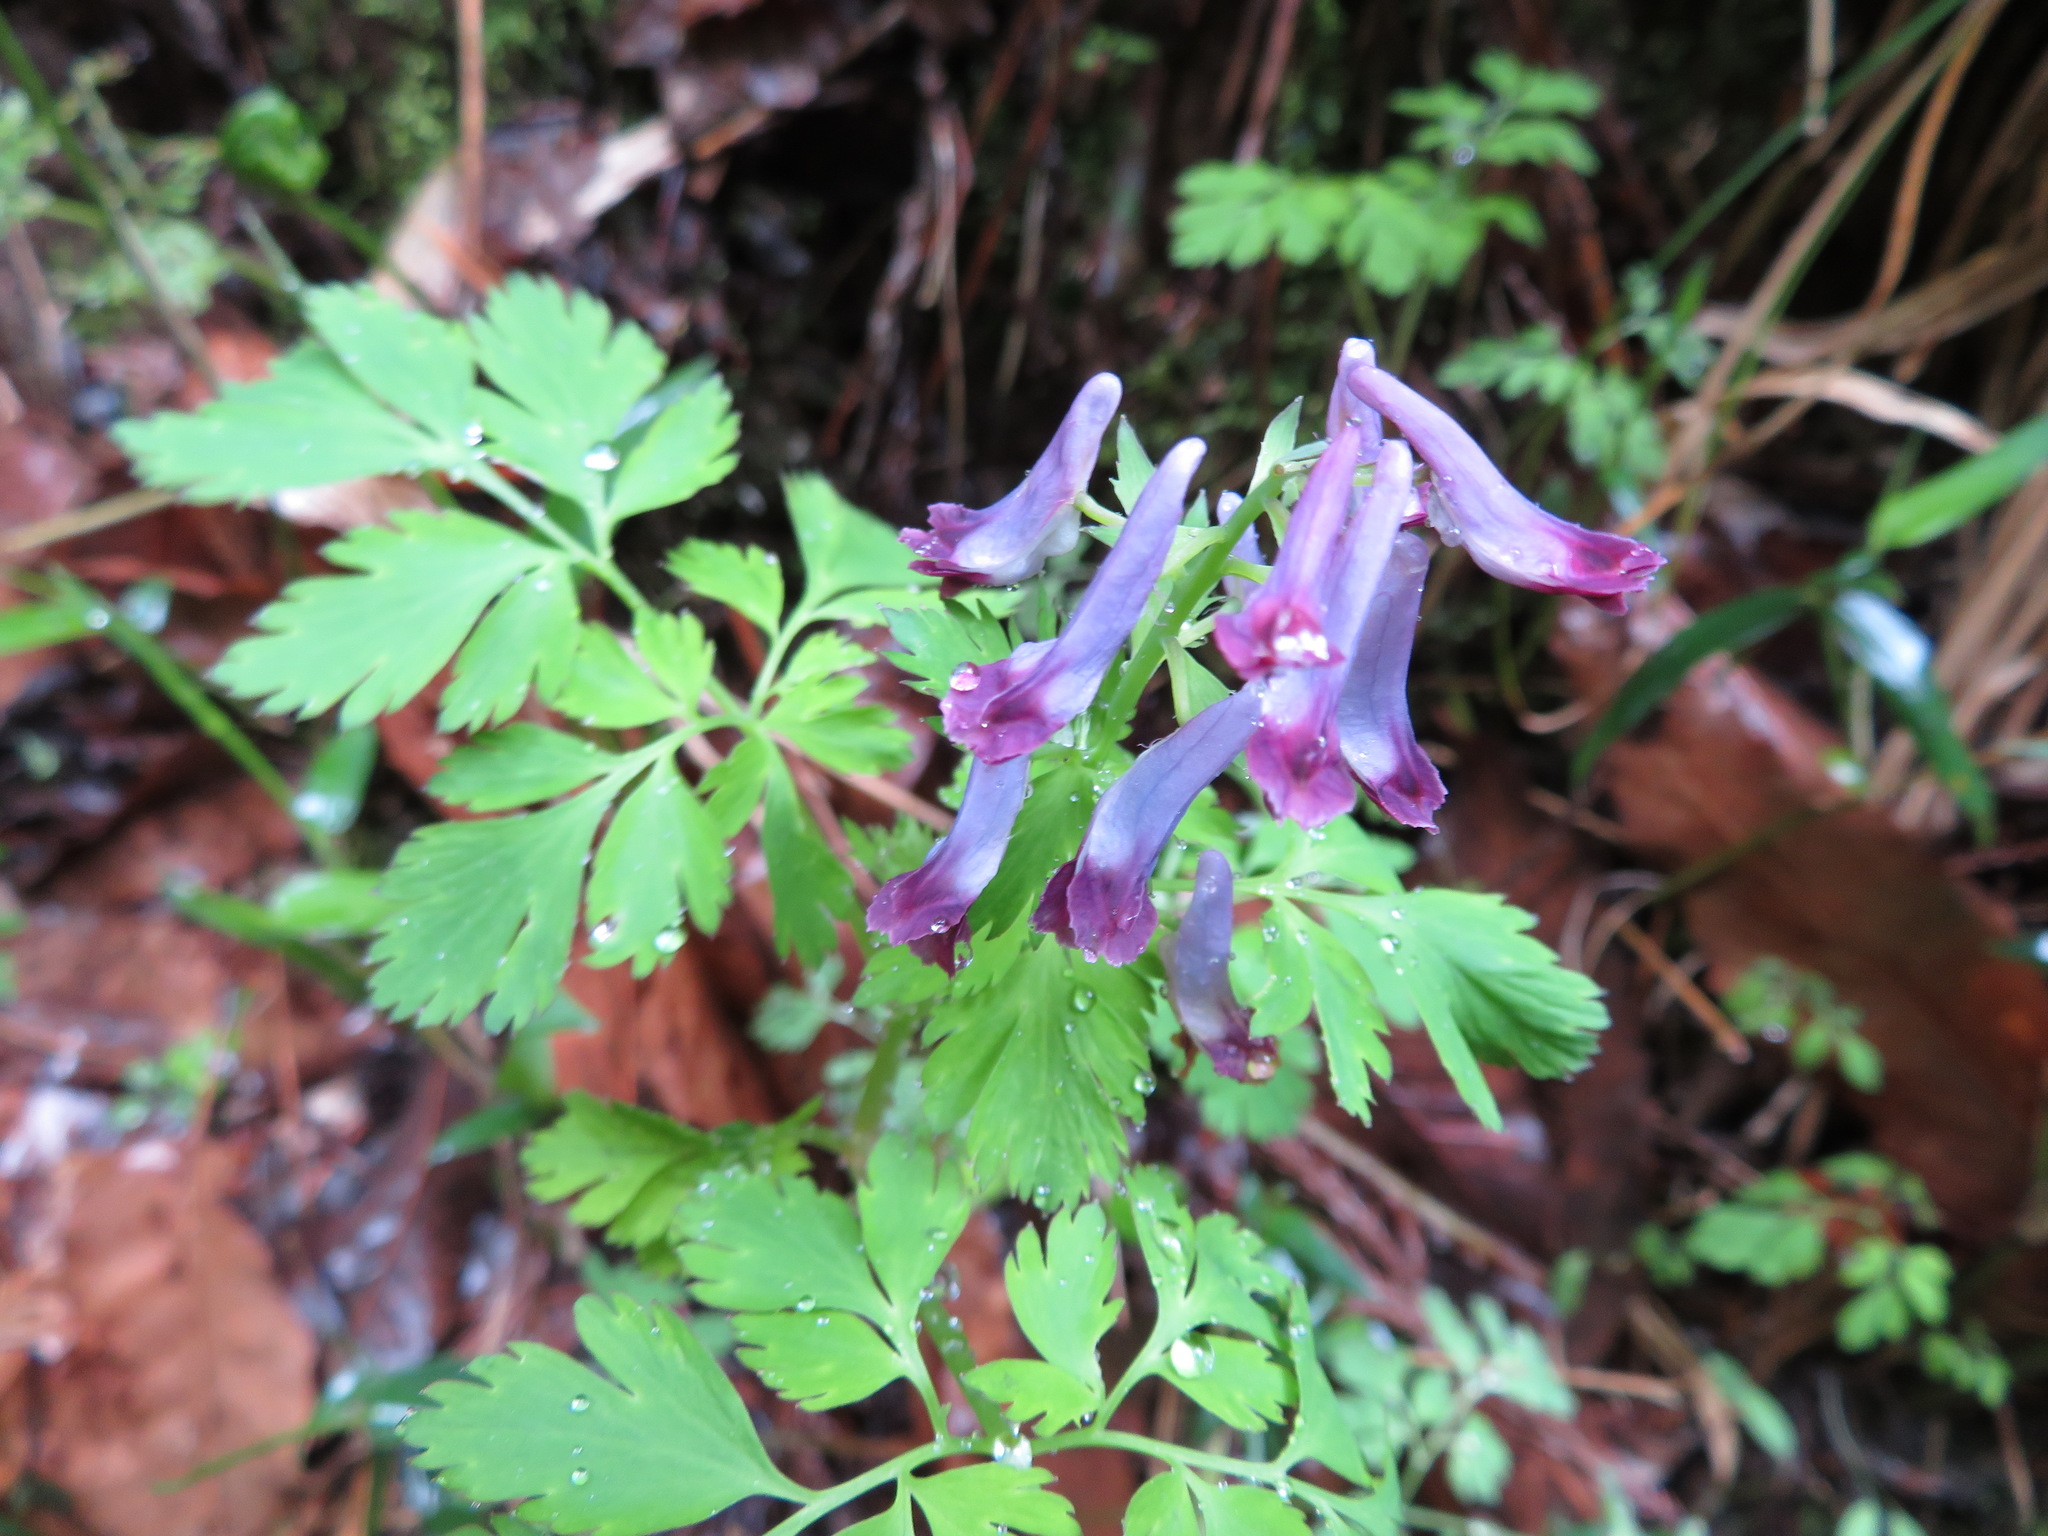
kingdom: Plantae
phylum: Tracheophyta
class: Magnoliopsida
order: Ranunculales
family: Papaveraceae
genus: Corydalis
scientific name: Corydalis incisa
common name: Incised fumewort
